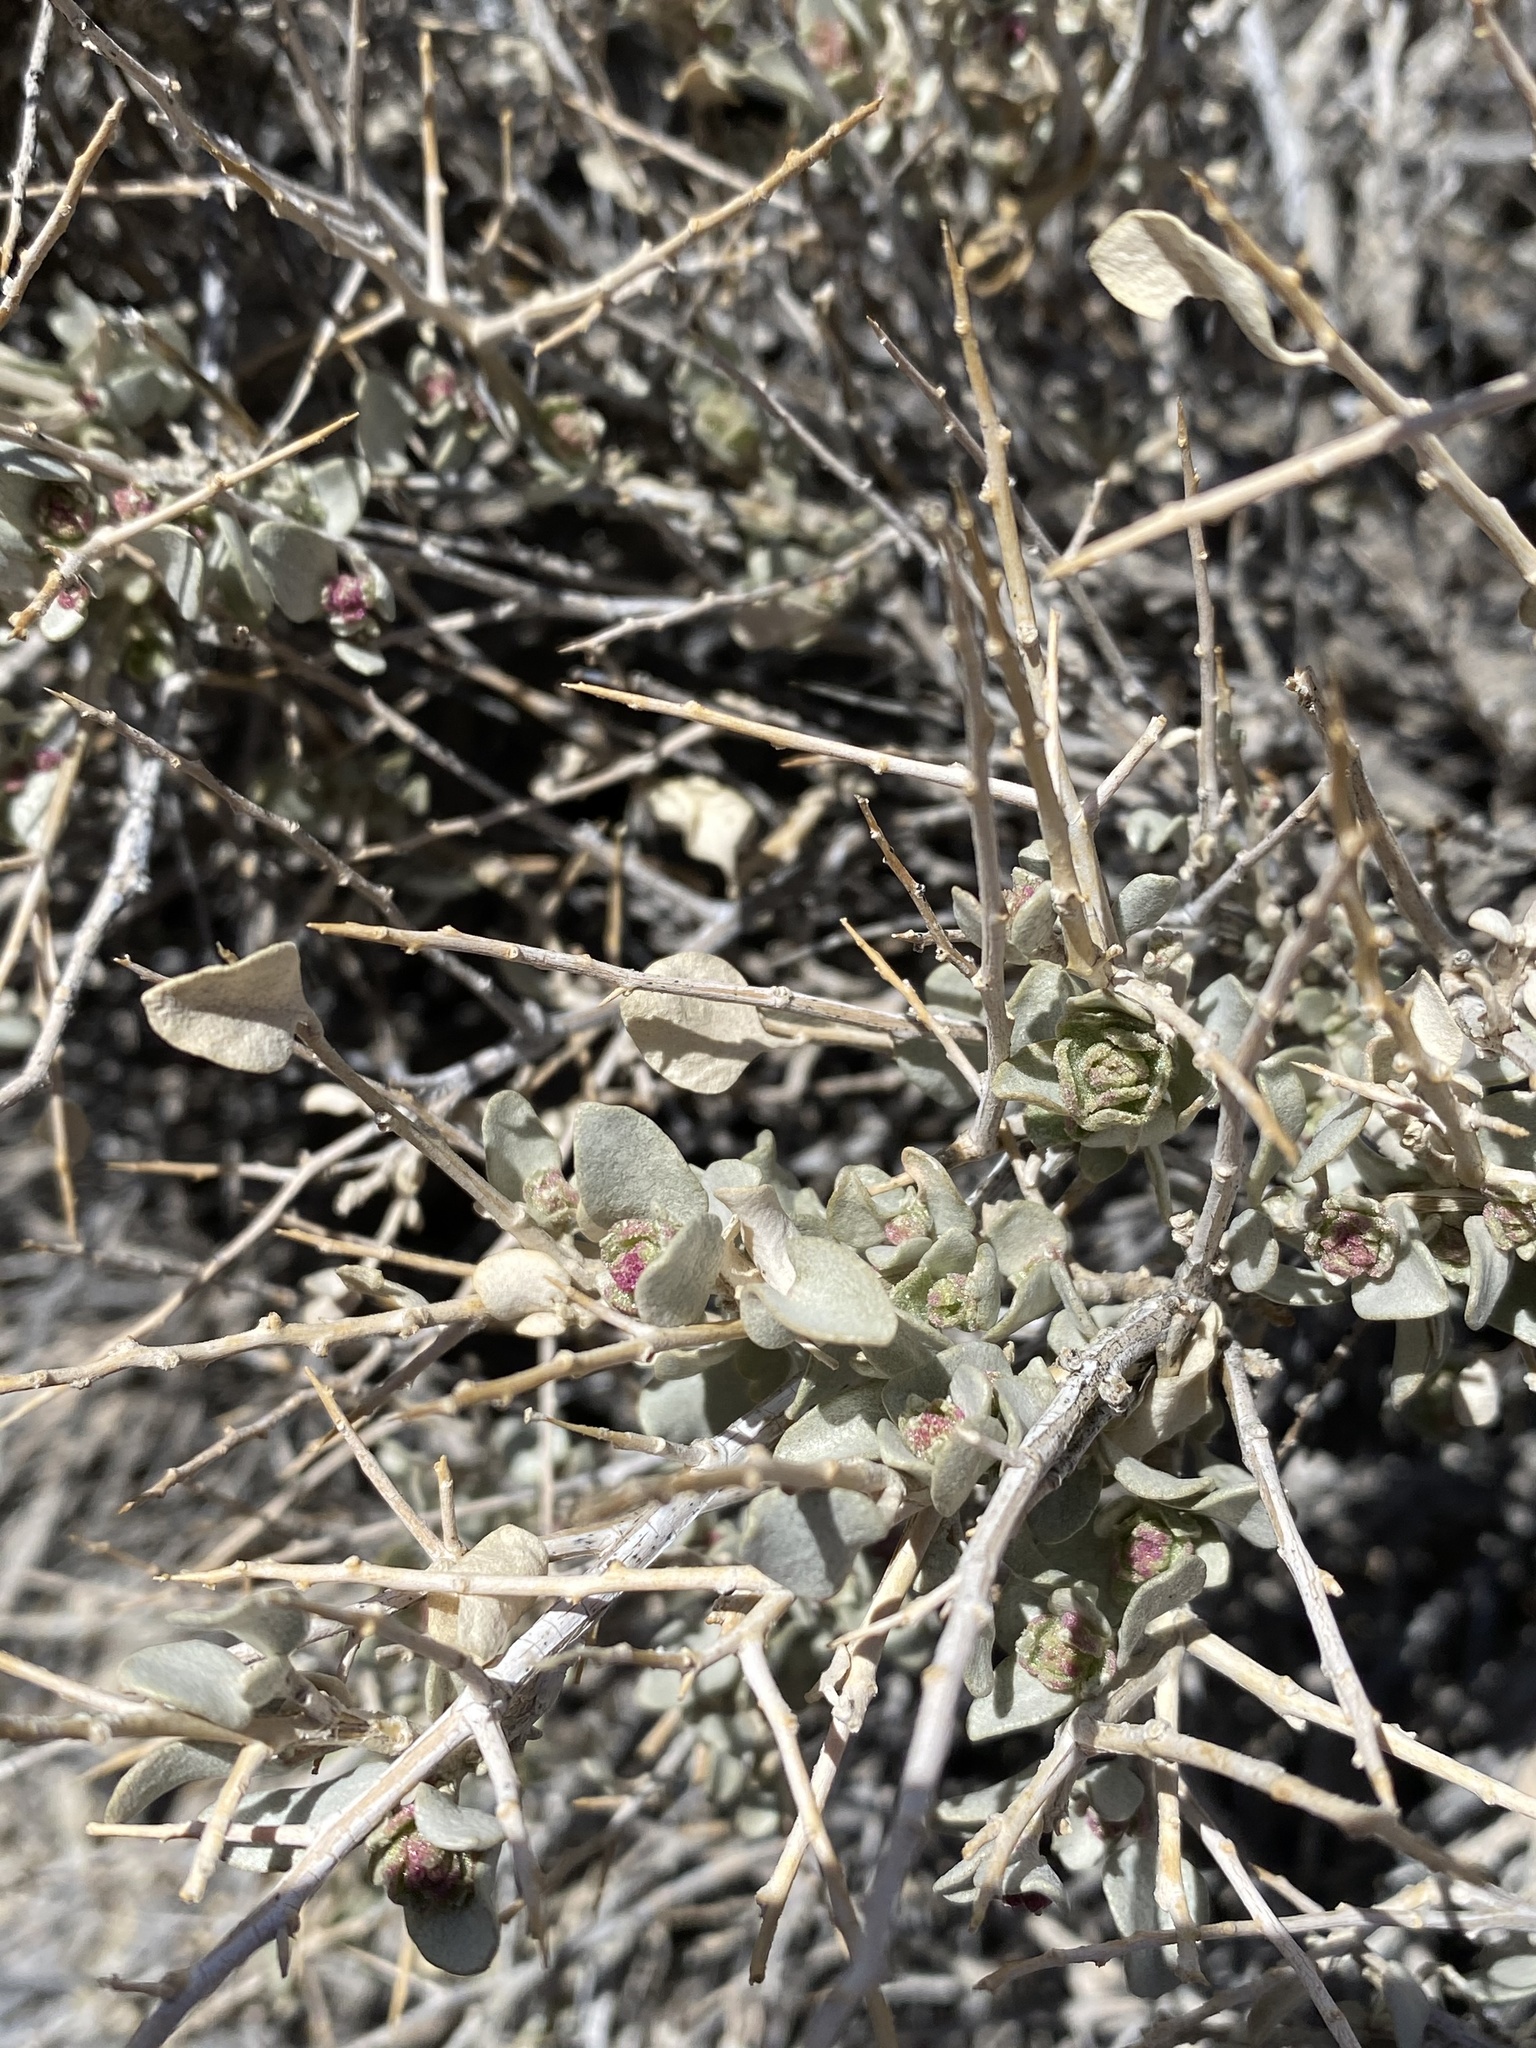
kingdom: Plantae
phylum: Tracheophyta
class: Magnoliopsida
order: Caryophyllales
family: Amaranthaceae
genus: Atriplex
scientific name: Atriplex confertifolia
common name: Shadscale
